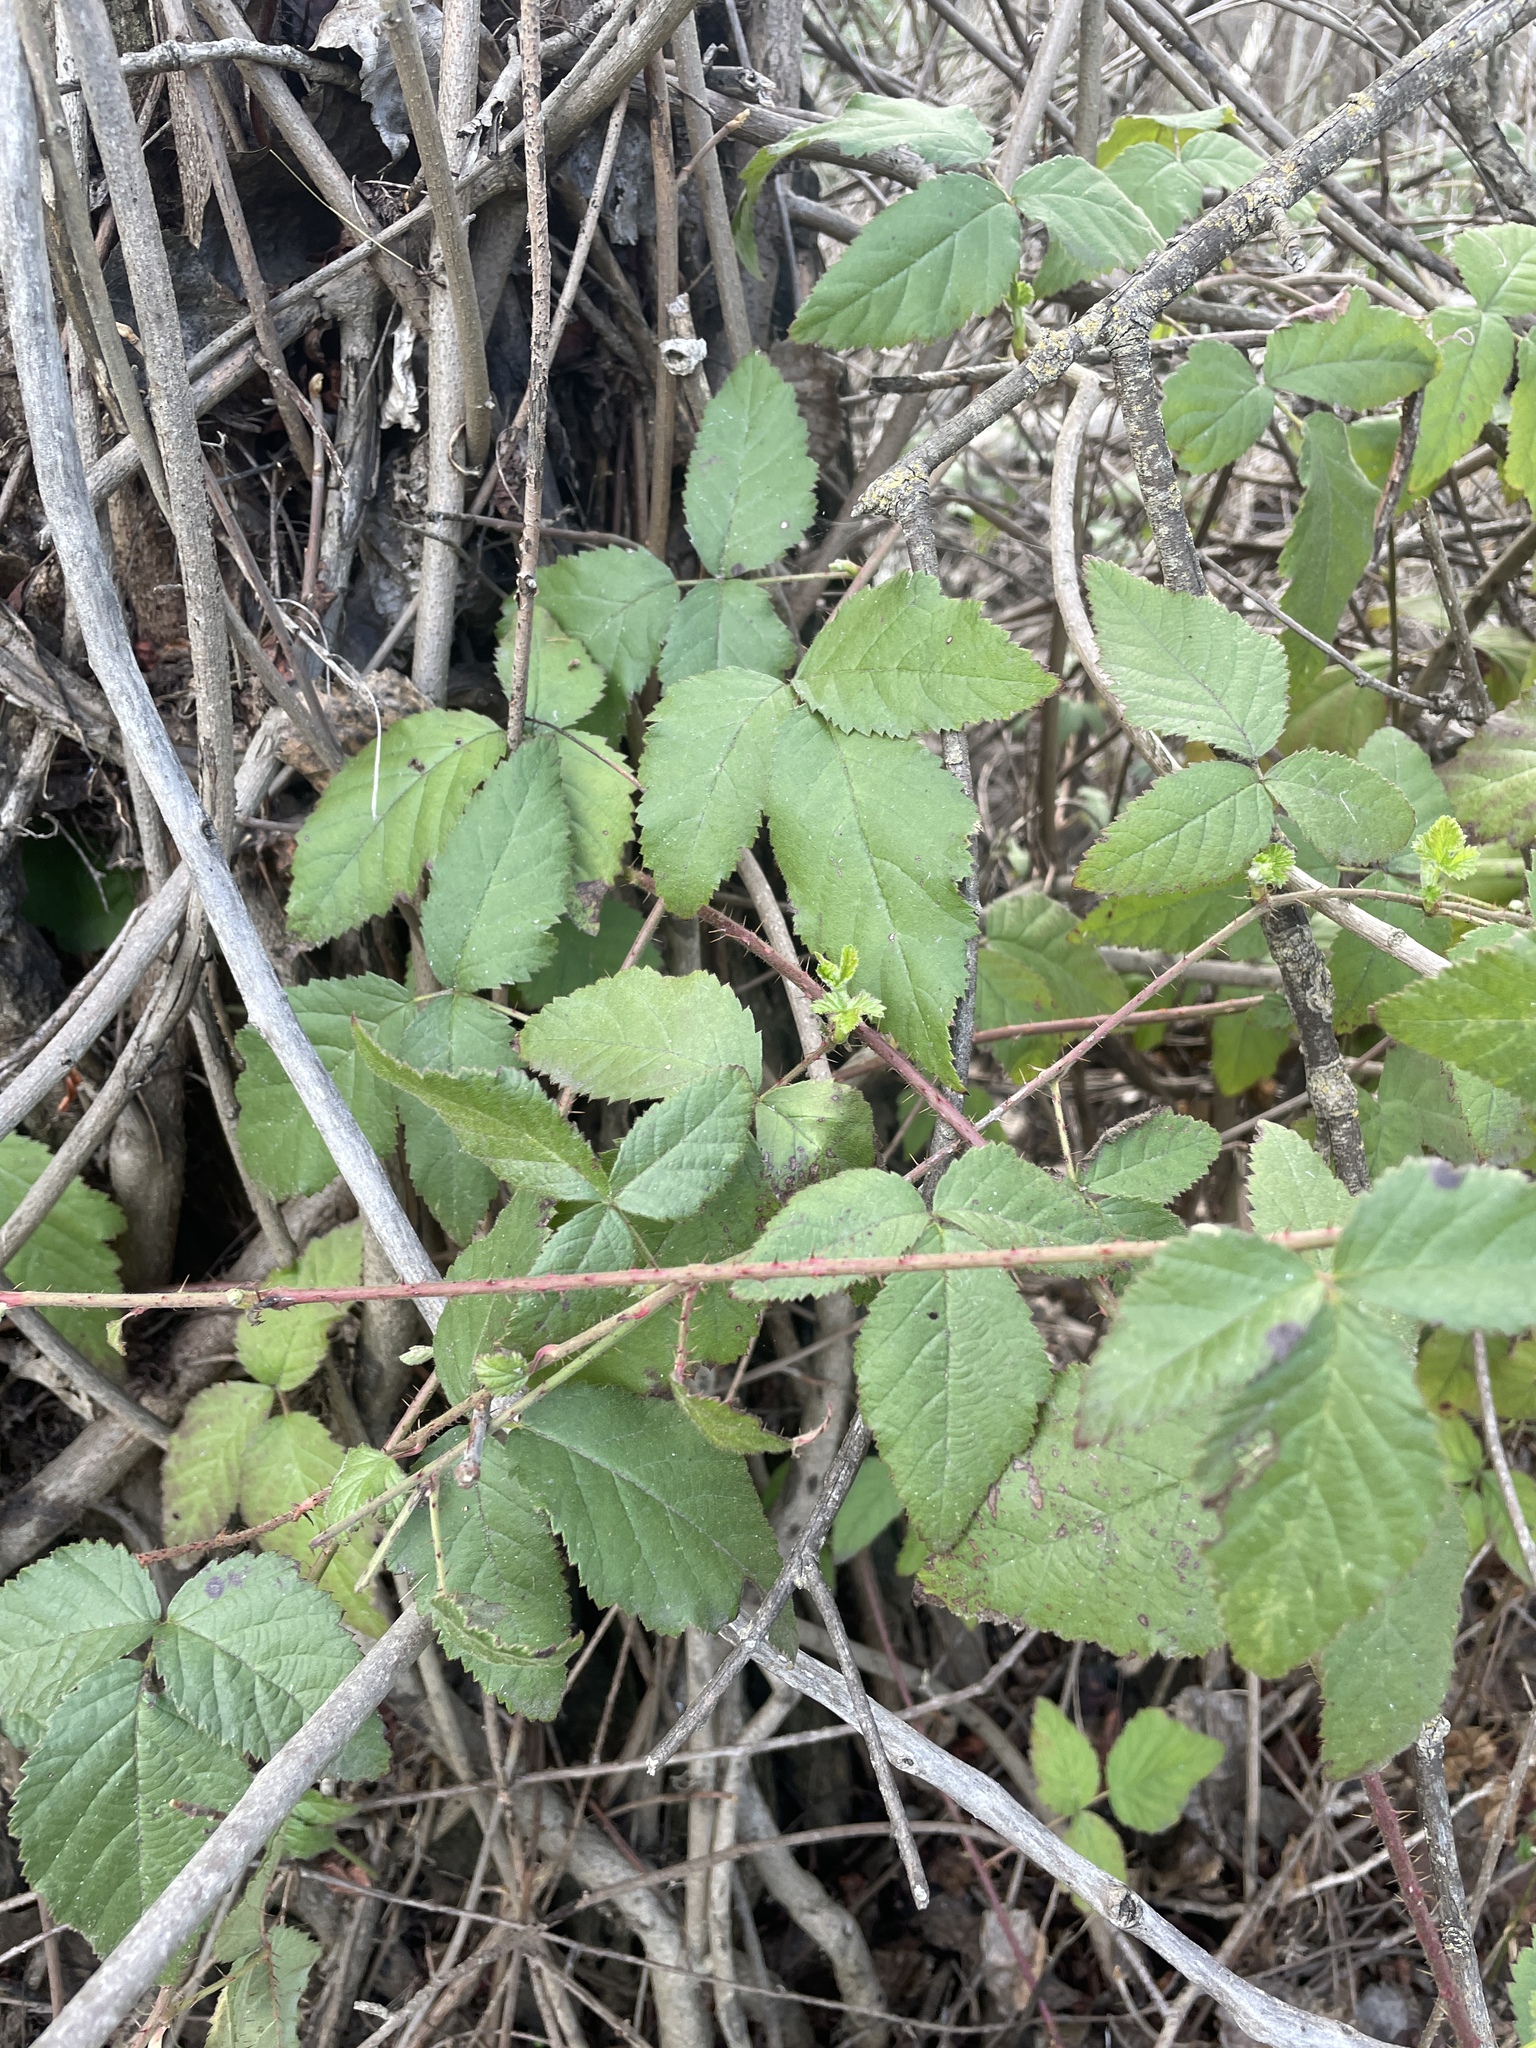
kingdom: Plantae
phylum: Tracheophyta
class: Magnoliopsida
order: Rosales
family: Rosaceae
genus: Rubus
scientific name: Rubus ursinus
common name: Pacific blackberry
